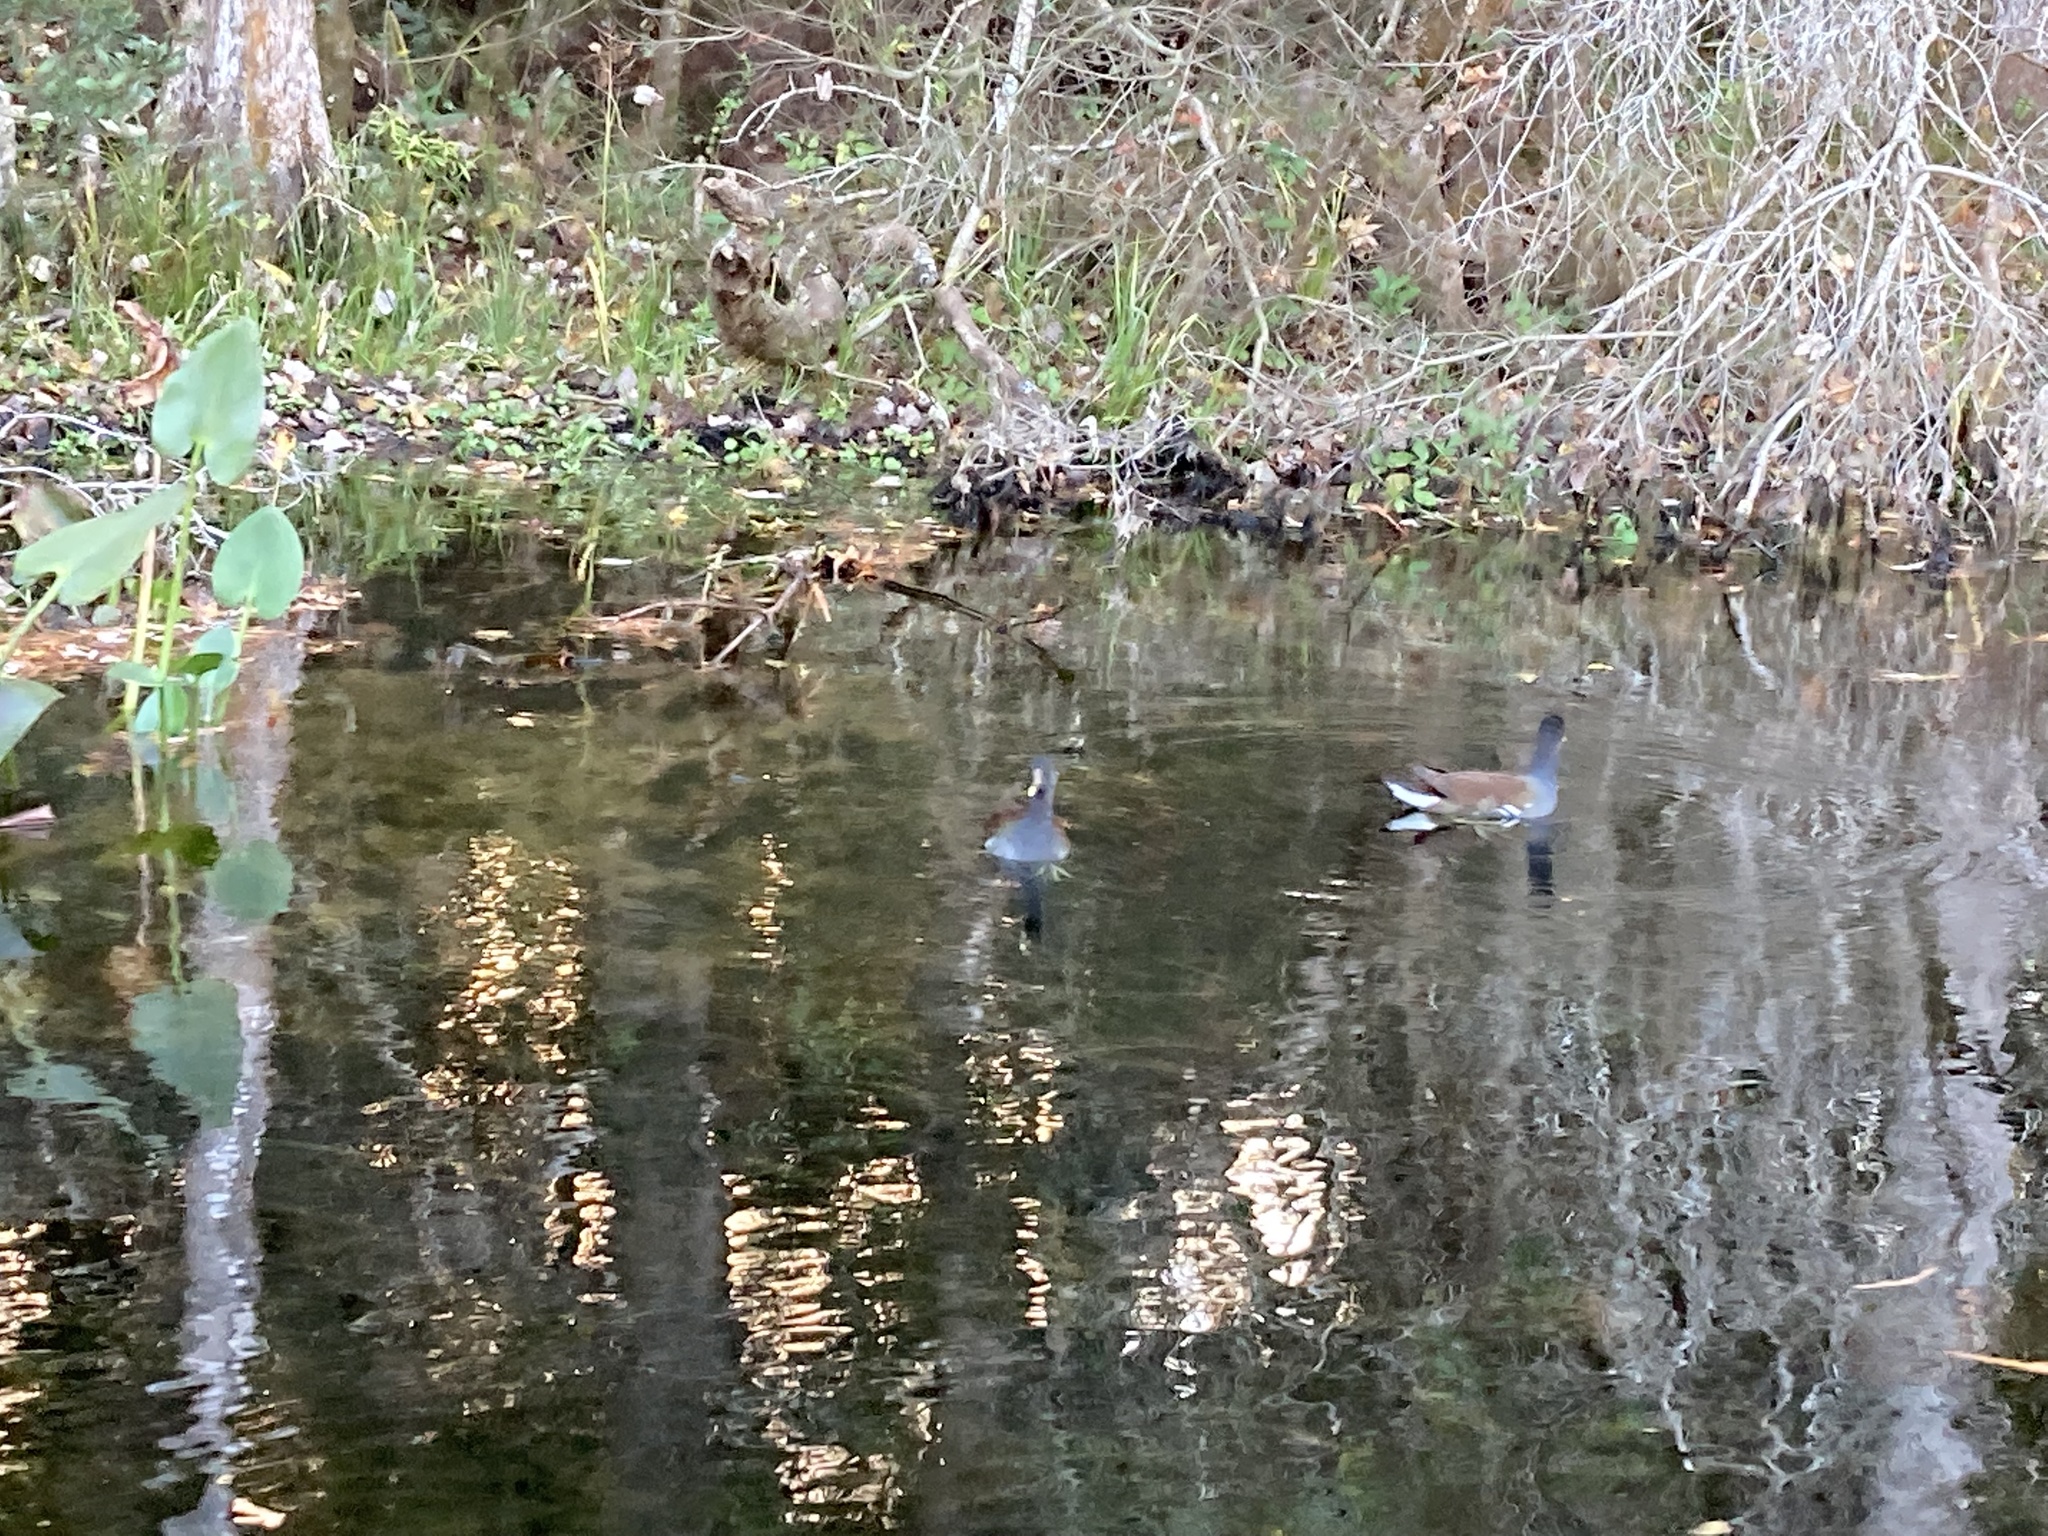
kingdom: Animalia
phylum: Chordata
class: Aves
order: Gruiformes
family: Rallidae
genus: Gallinula
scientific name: Gallinula chloropus
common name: Common moorhen
